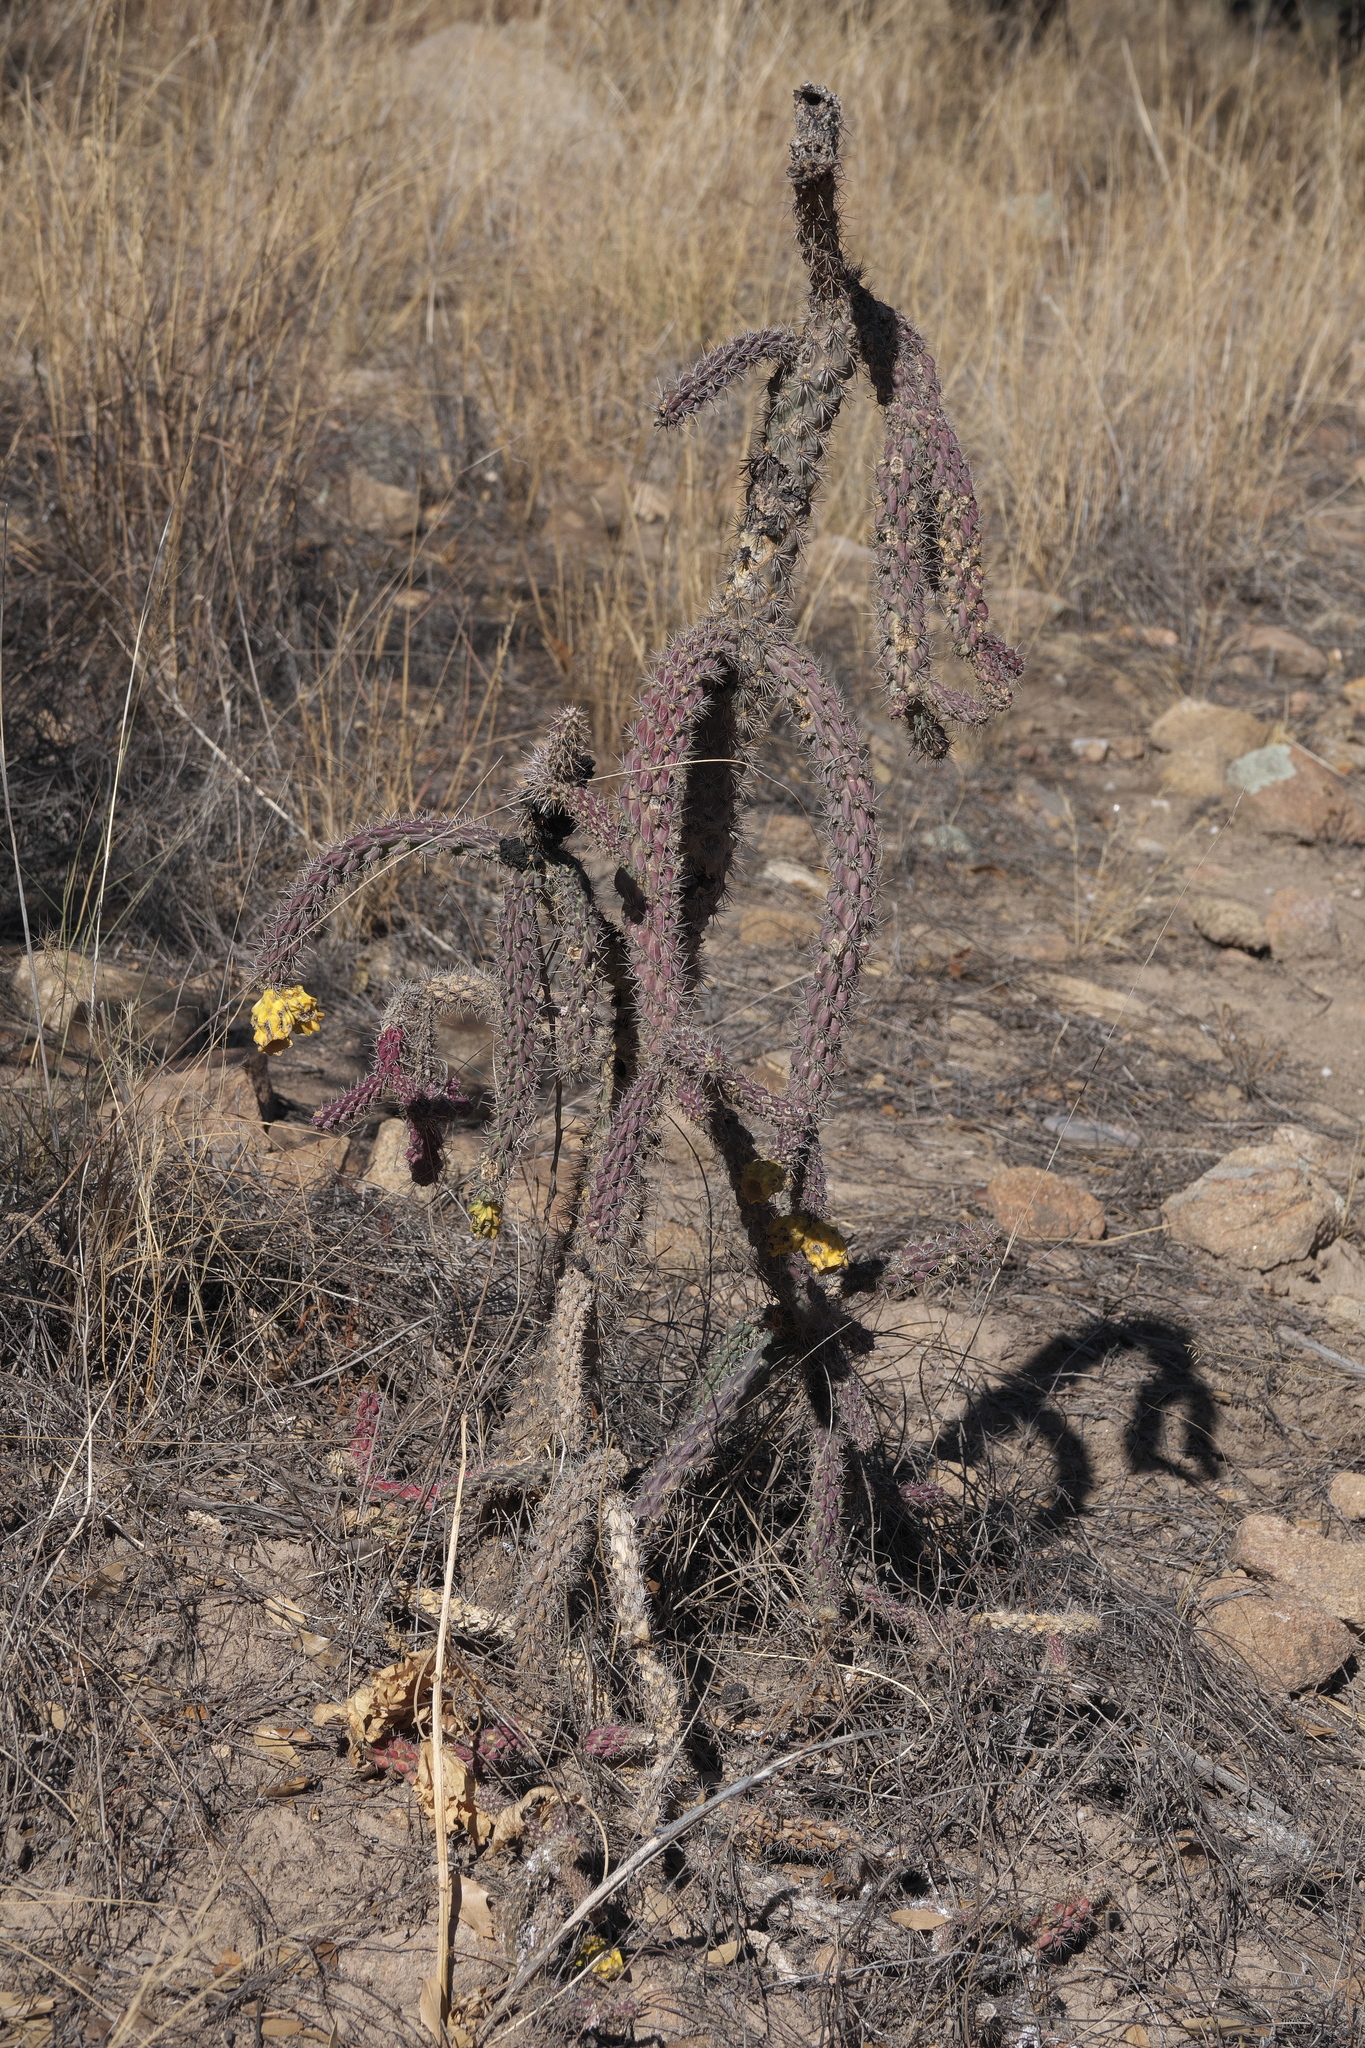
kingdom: Plantae
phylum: Tracheophyta
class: Magnoliopsida
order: Caryophyllales
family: Cactaceae
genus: Cylindropuntia
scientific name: Cylindropuntia imbricata
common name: Candelabrum cactus
